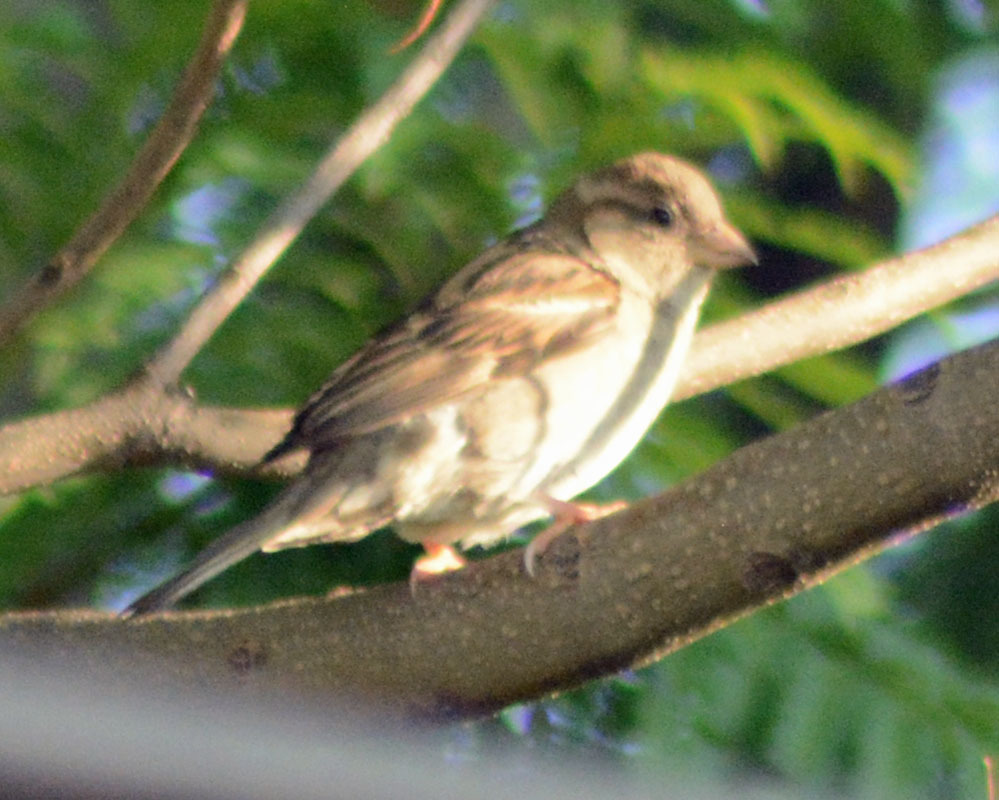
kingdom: Animalia
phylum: Chordata
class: Aves
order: Passeriformes
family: Passeridae
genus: Passer
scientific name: Passer domesticus
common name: House sparrow
